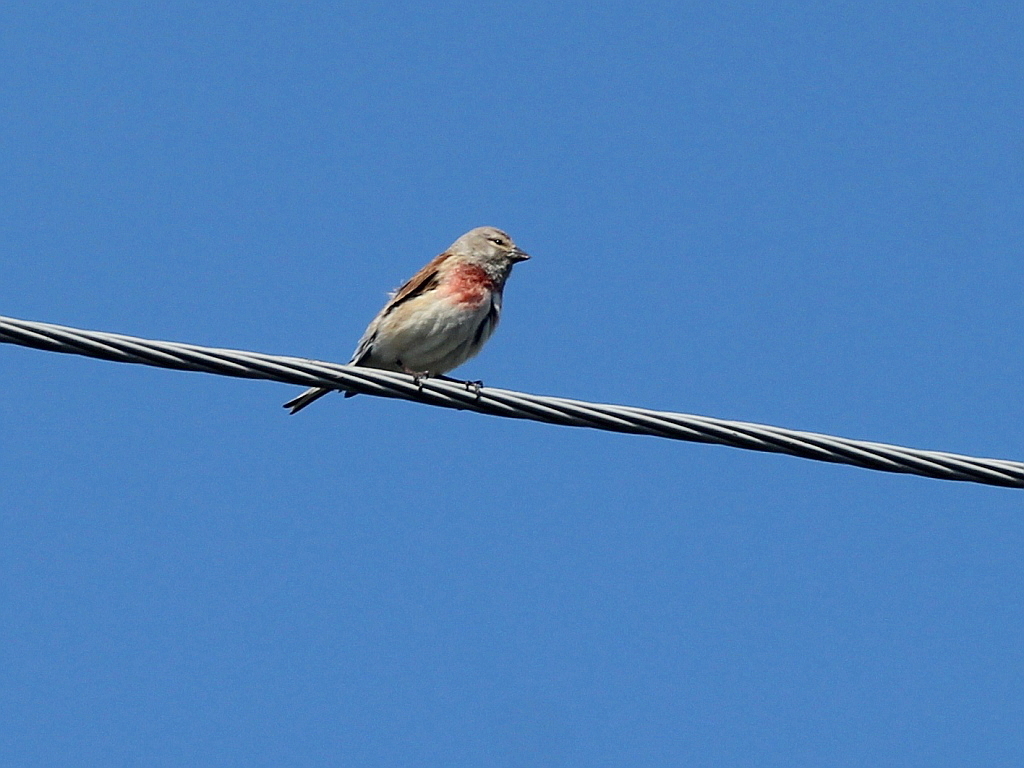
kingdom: Animalia
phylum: Chordata
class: Aves
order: Passeriformes
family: Fringillidae
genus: Linaria
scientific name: Linaria cannabina
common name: Common linnet
